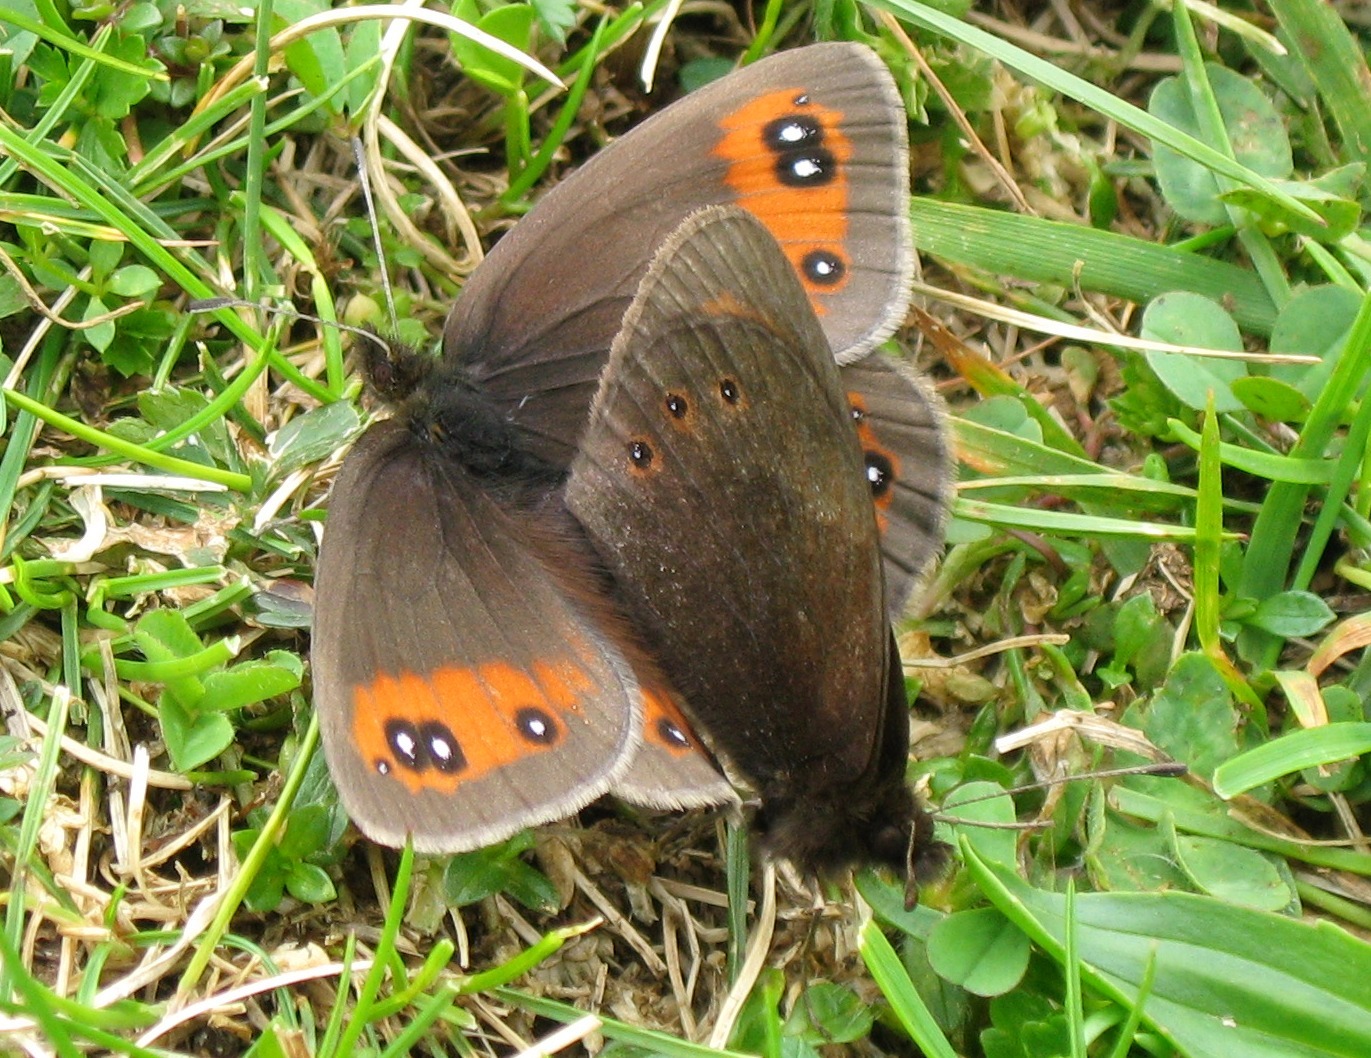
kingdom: Animalia
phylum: Arthropoda
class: Insecta
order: Lepidoptera
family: Nymphalidae
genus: Erebia
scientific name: Erebia meolans
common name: Piedmont ringlet
